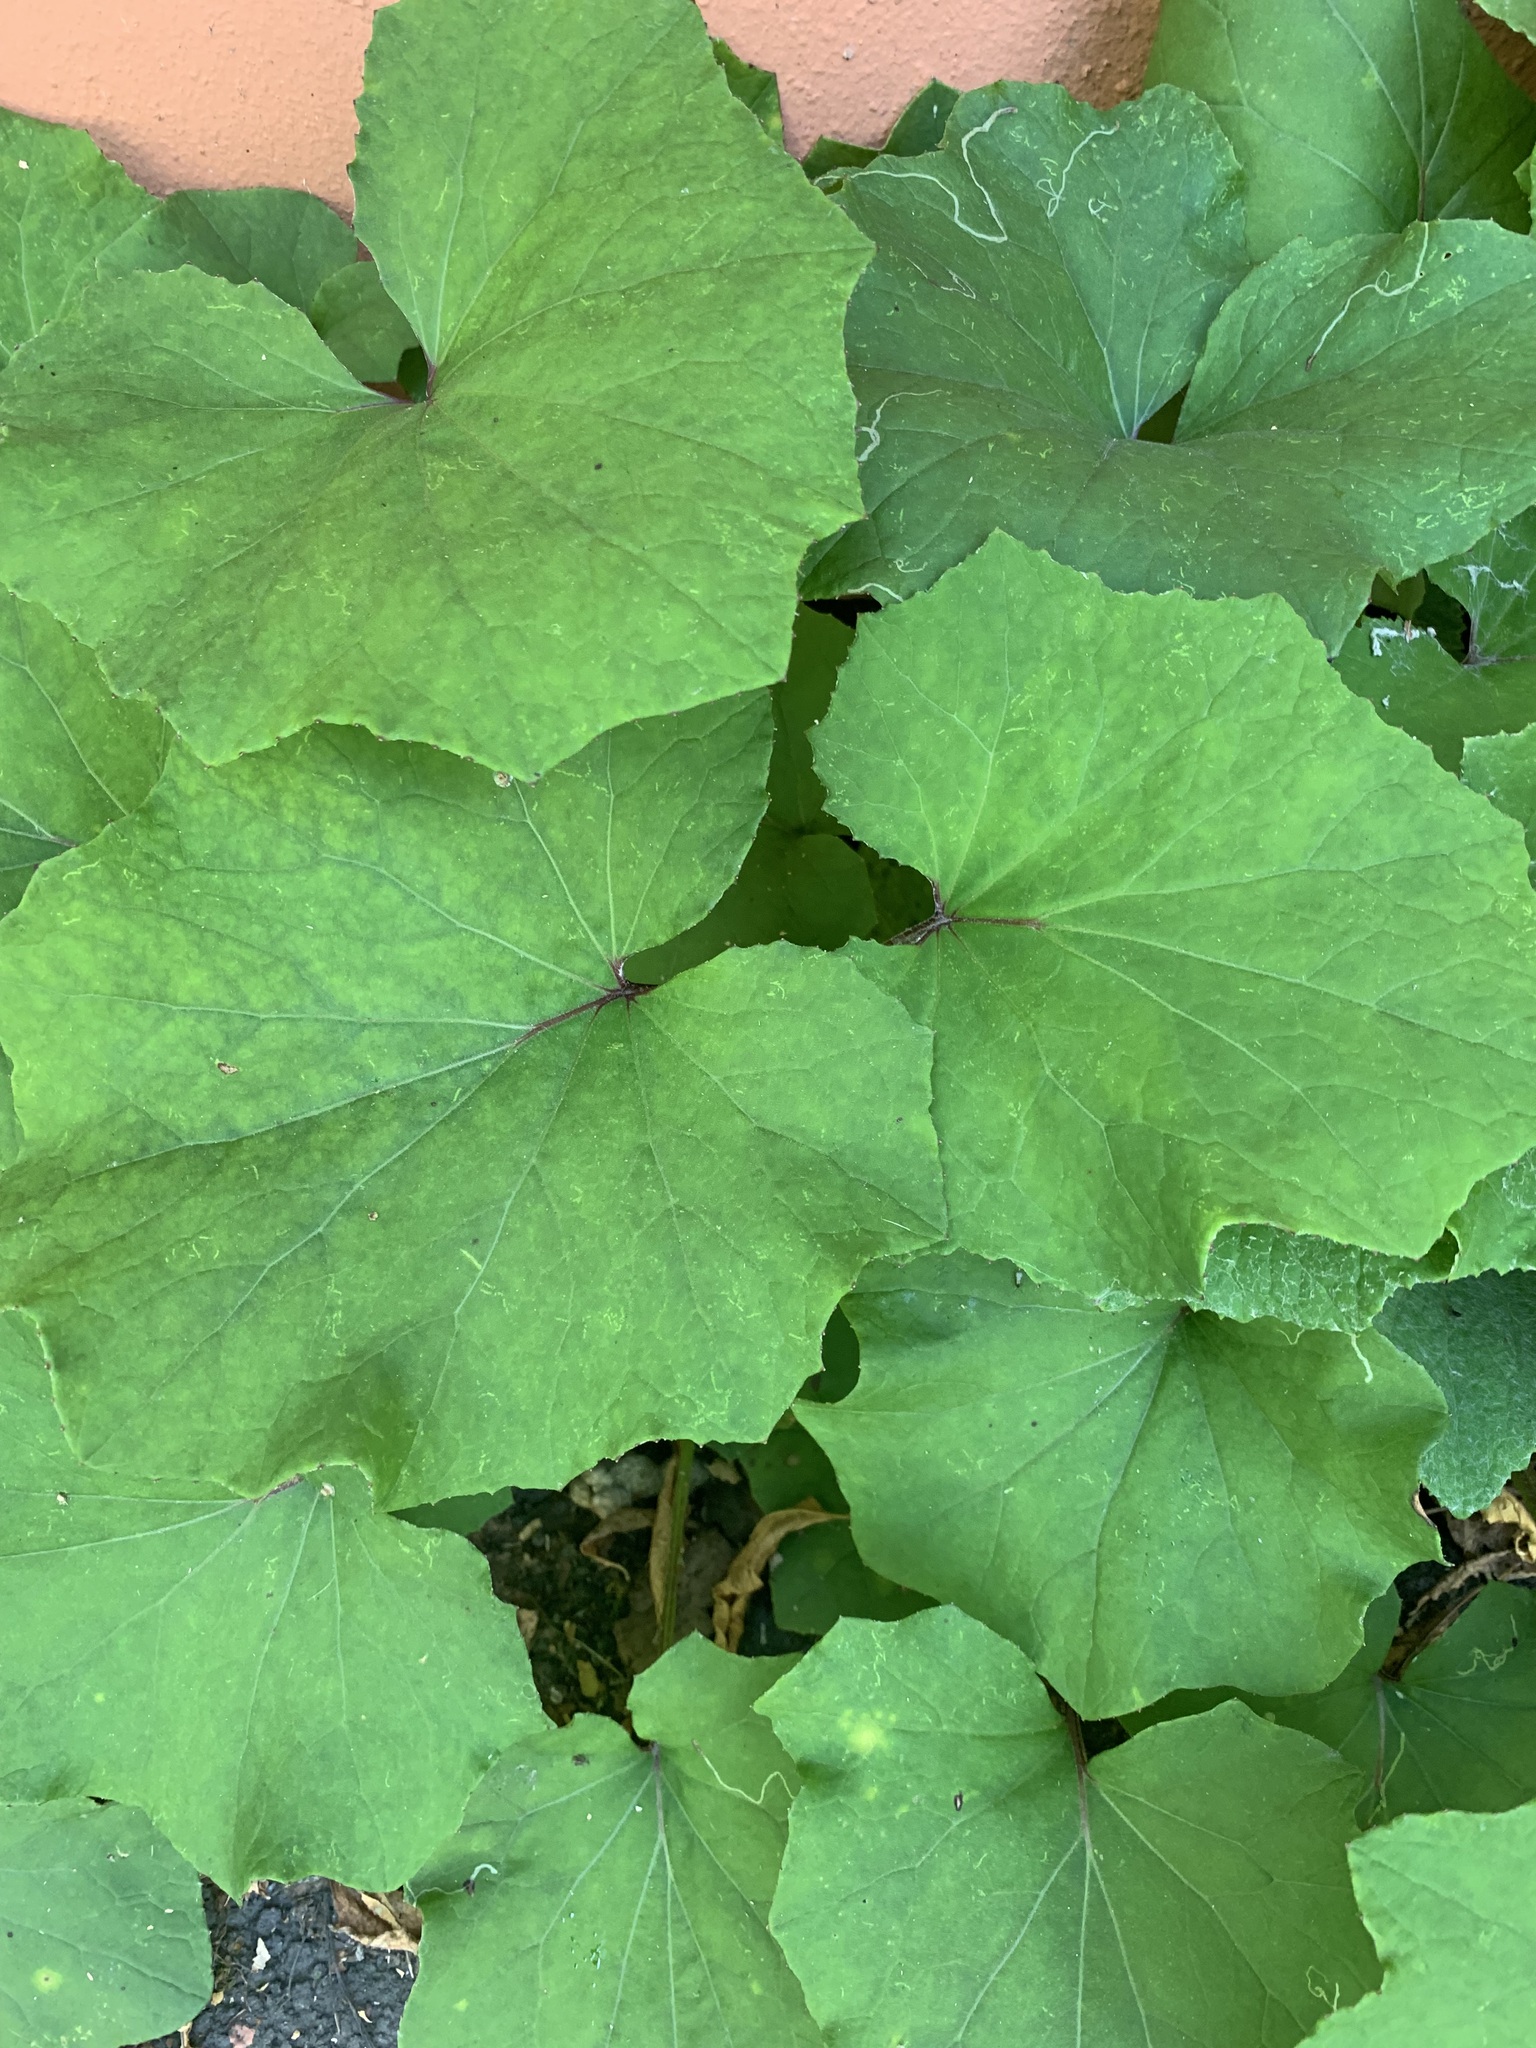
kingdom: Plantae
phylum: Tracheophyta
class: Magnoliopsida
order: Asterales
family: Asteraceae
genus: Tussilago
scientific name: Tussilago farfara
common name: Coltsfoot
